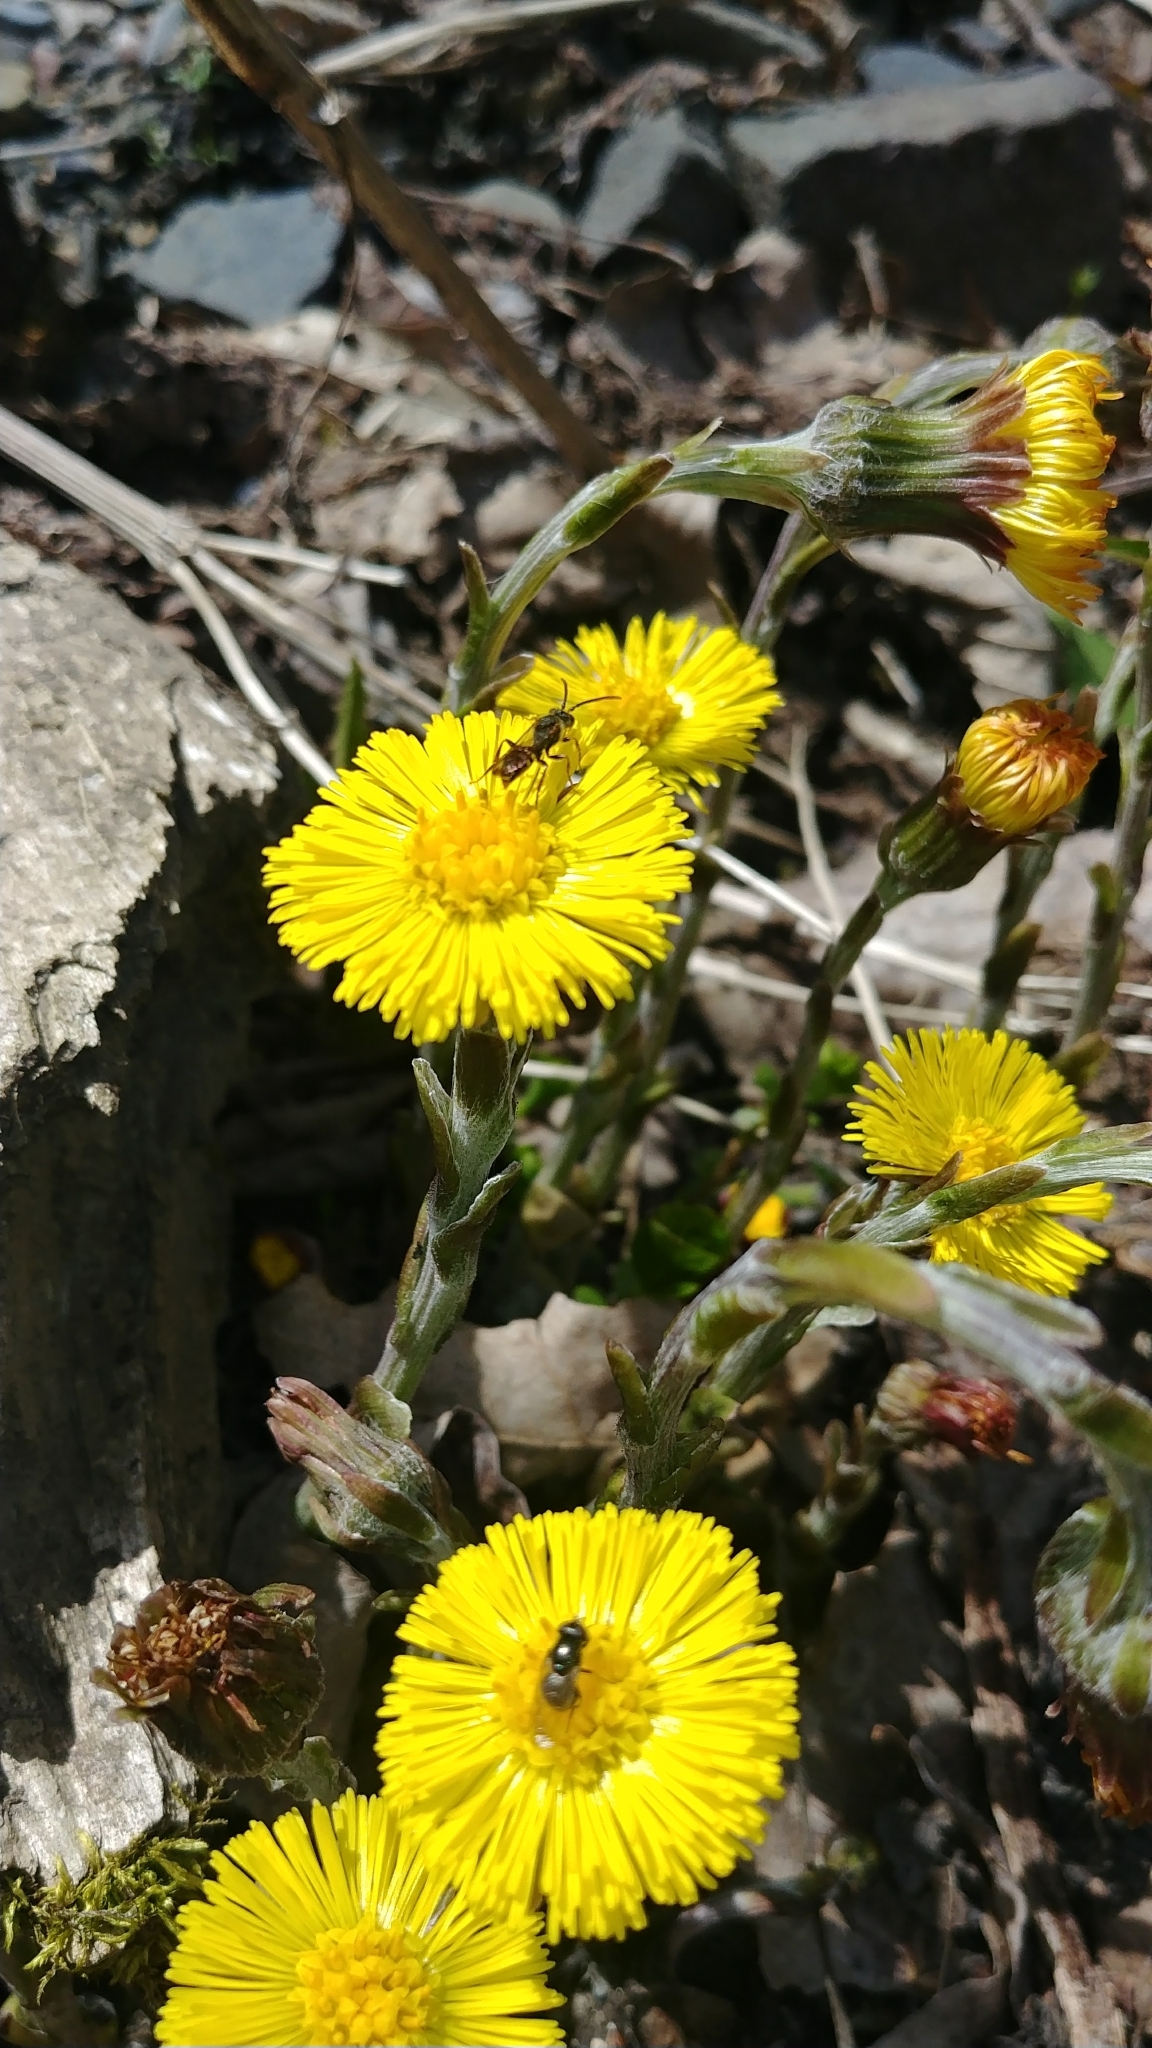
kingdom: Animalia
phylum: Arthropoda
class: Insecta
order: Hymenoptera
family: Apidae
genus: Nomada
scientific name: Nomada
